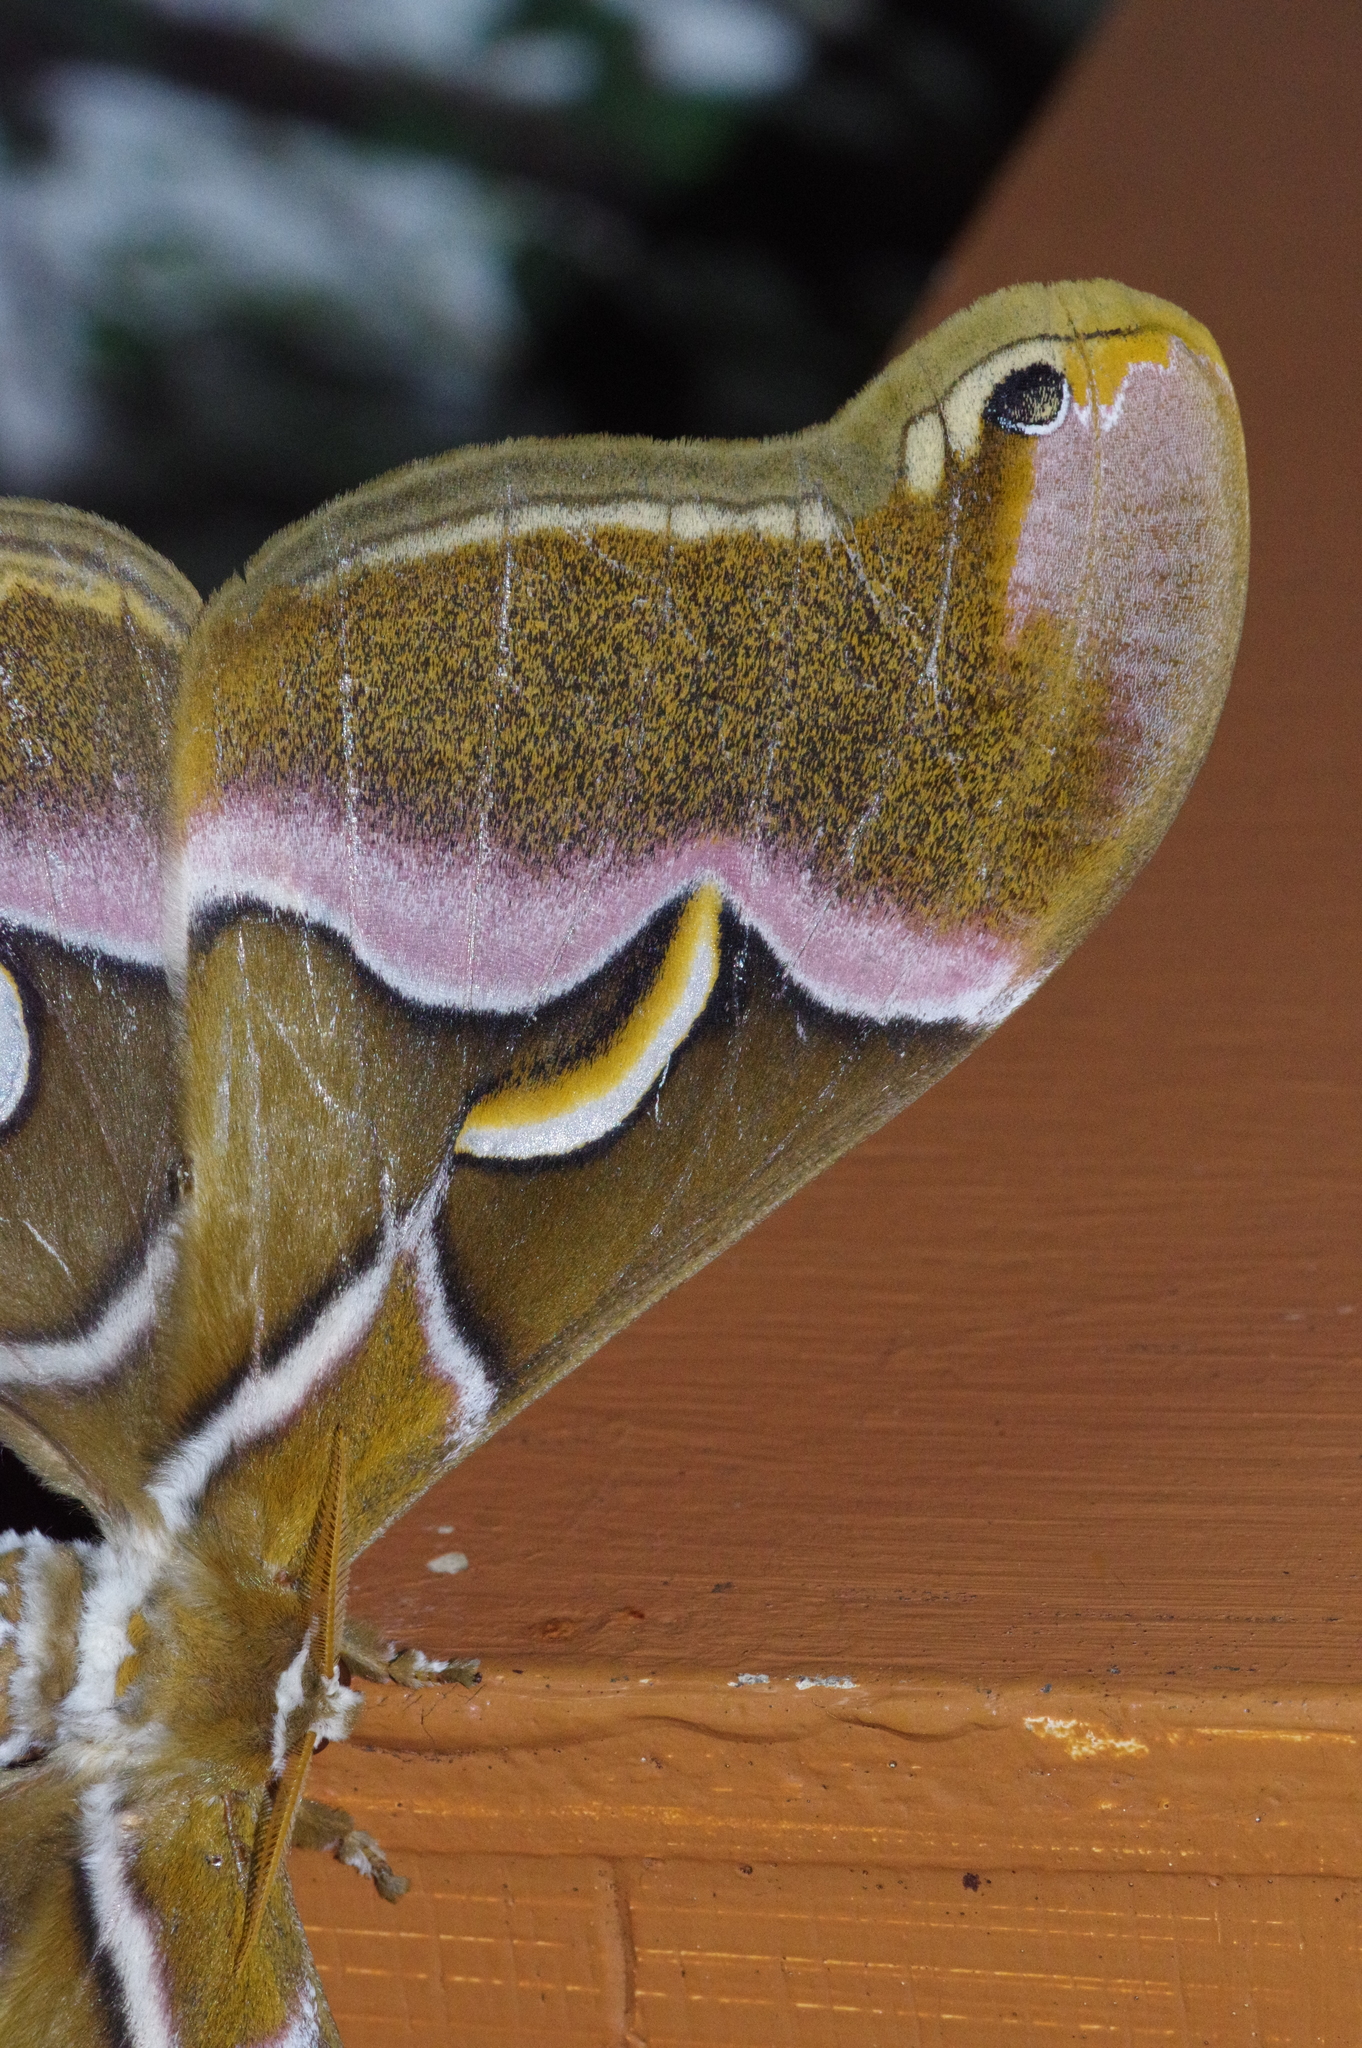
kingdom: Animalia
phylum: Arthropoda
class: Insecta
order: Lepidoptera
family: Saturniidae
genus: Samia
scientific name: Samia cynthia
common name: Ailanthus silkmoth
